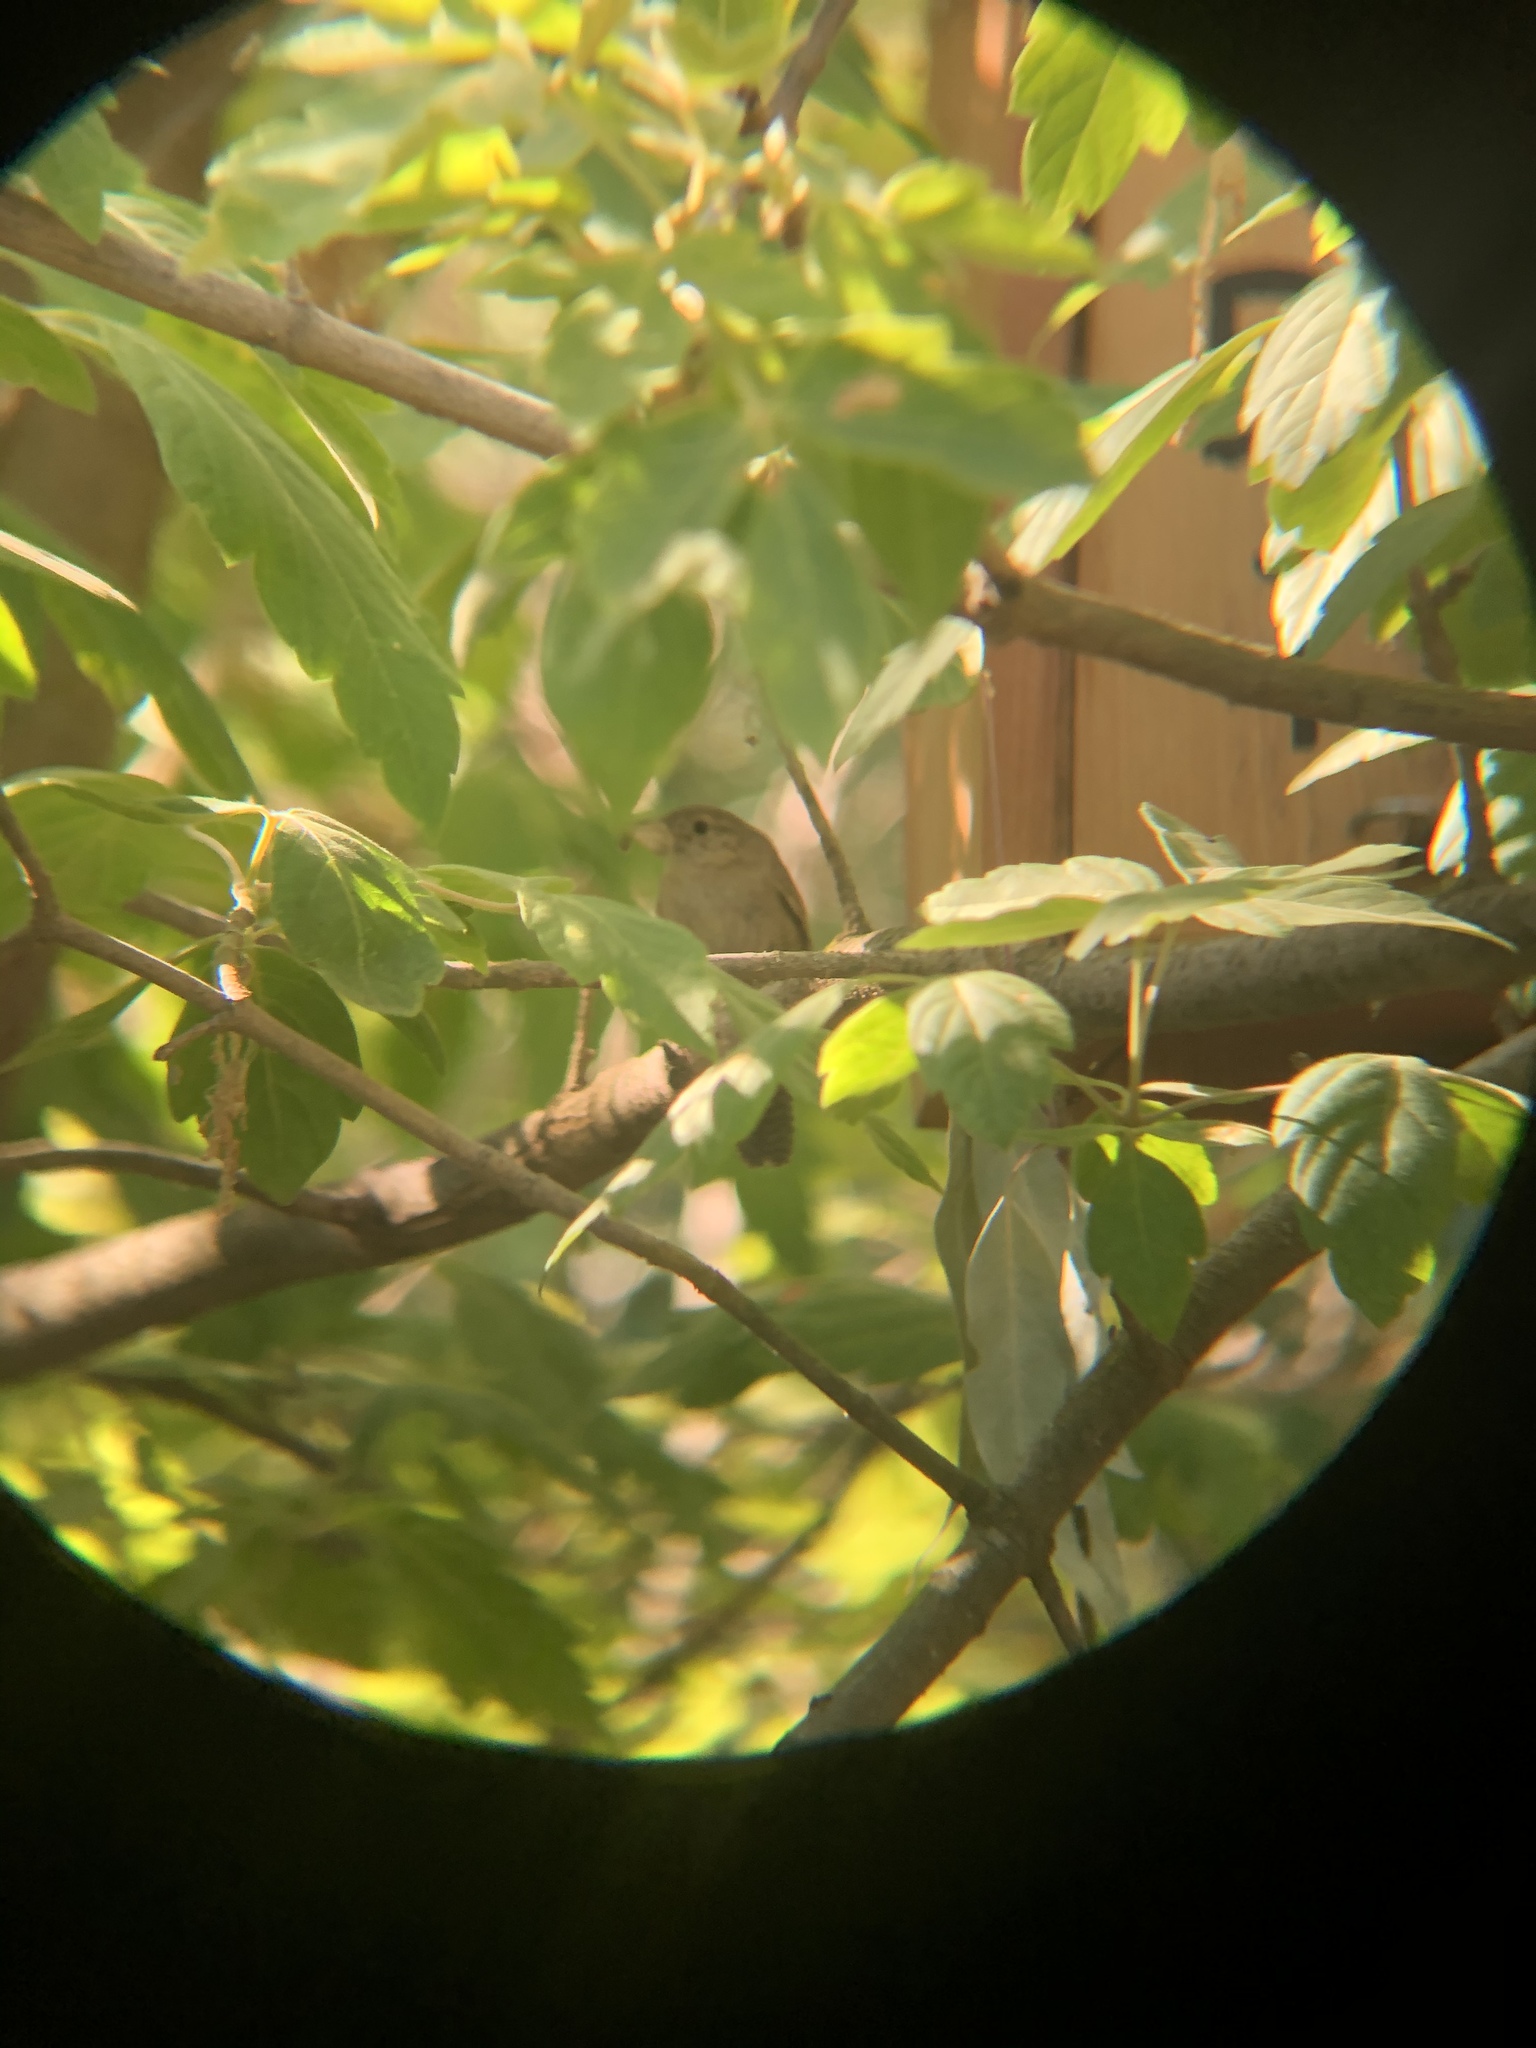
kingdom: Animalia
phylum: Chordata
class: Aves
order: Passeriformes
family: Troglodytidae
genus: Troglodytes
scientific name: Troglodytes aedon
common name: House wren
